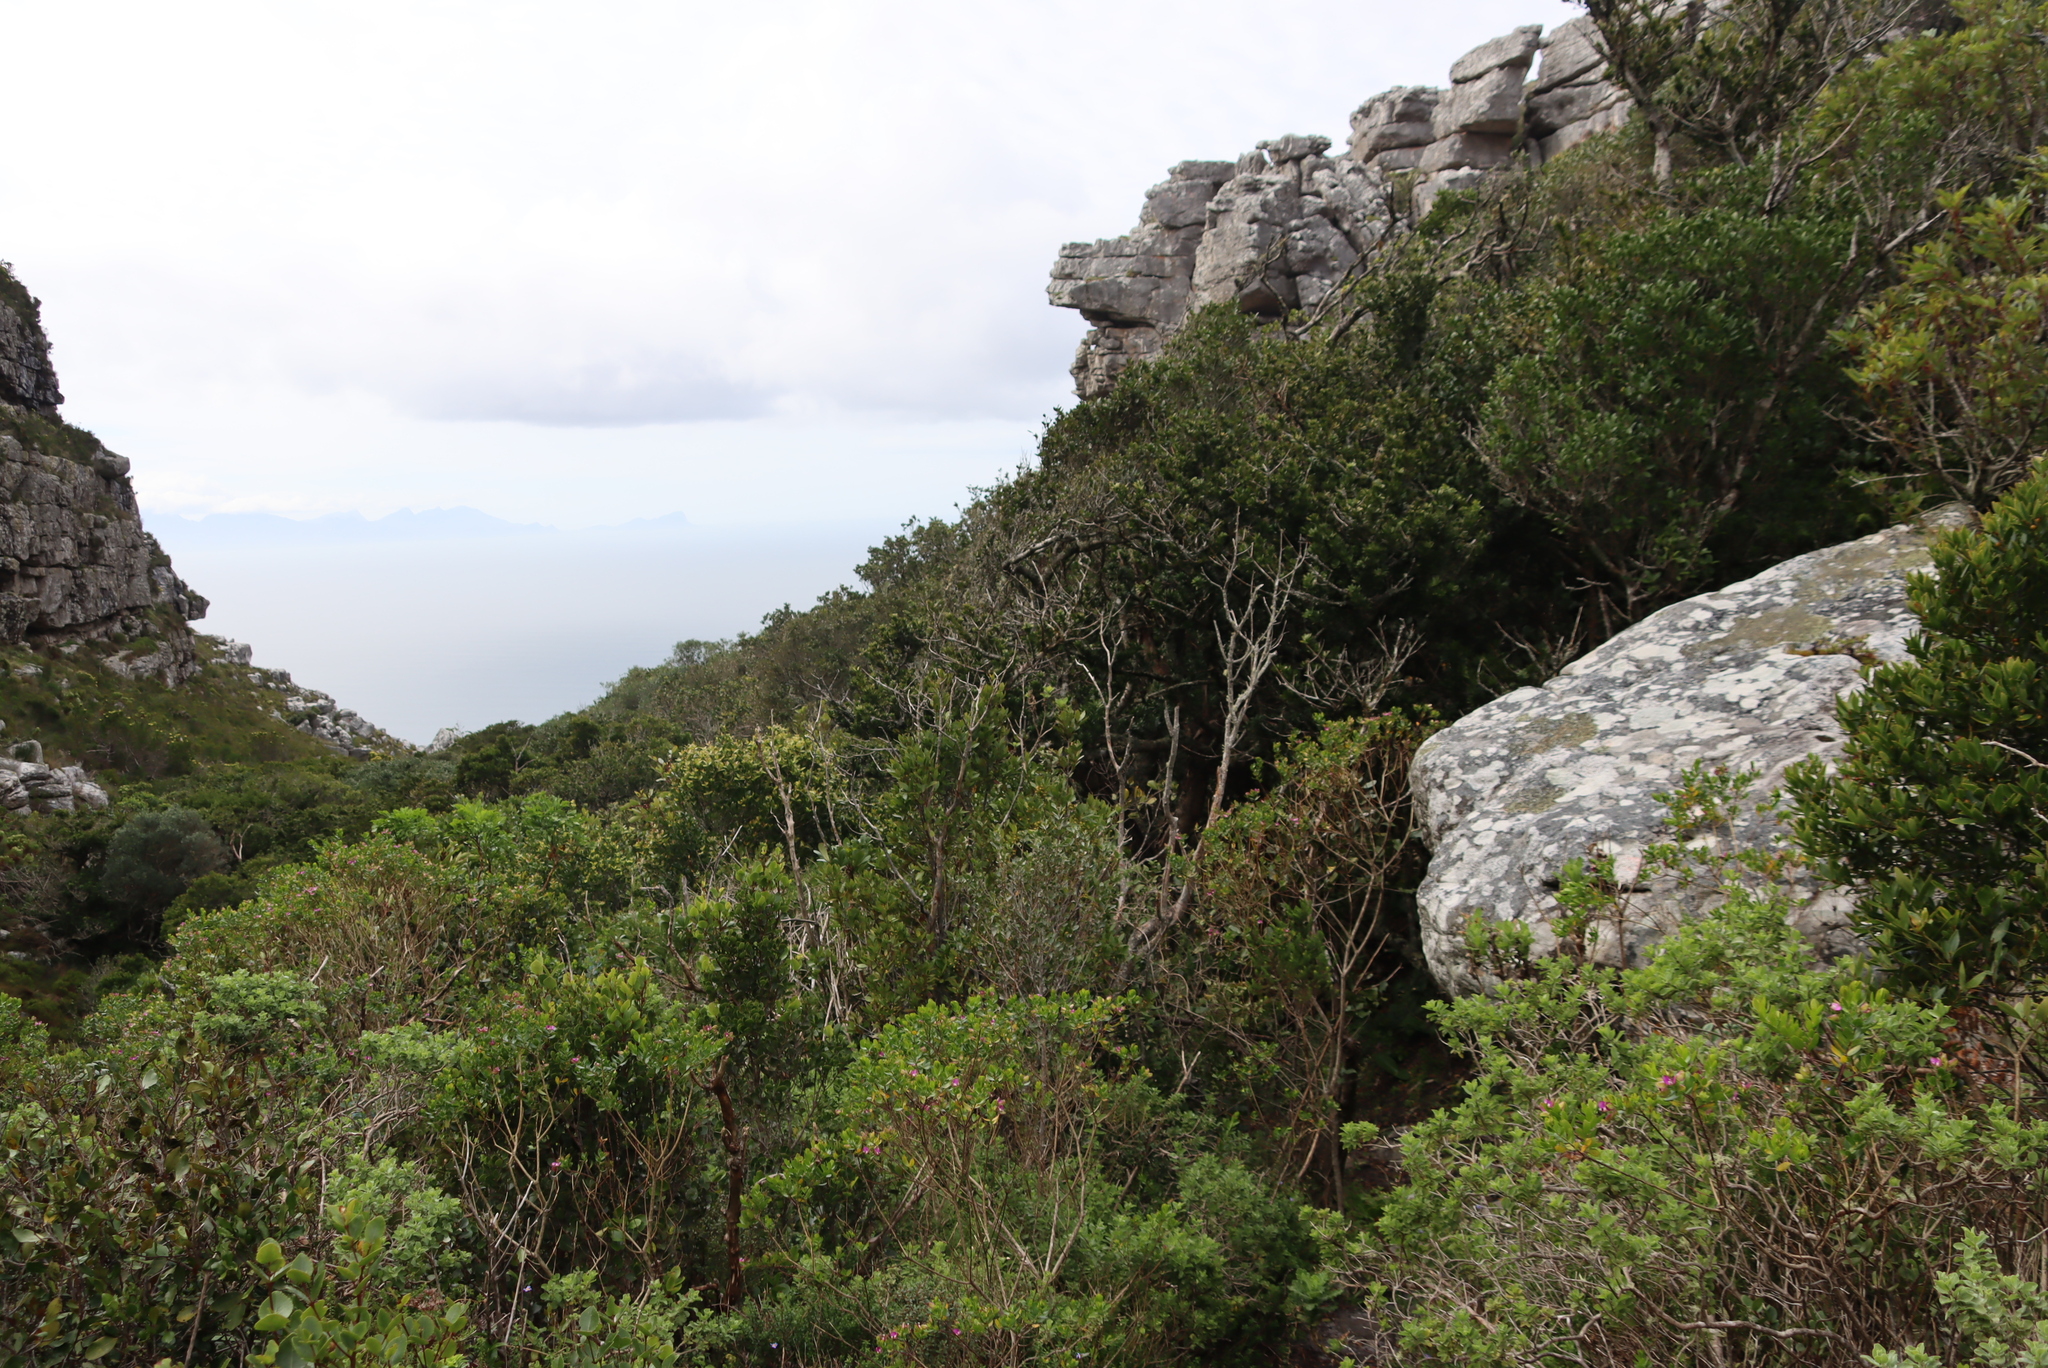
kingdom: Plantae
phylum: Tracheophyta
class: Magnoliopsida
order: Oxalidales
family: Cunoniaceae
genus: Cunonia
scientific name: Cunonia capensis
